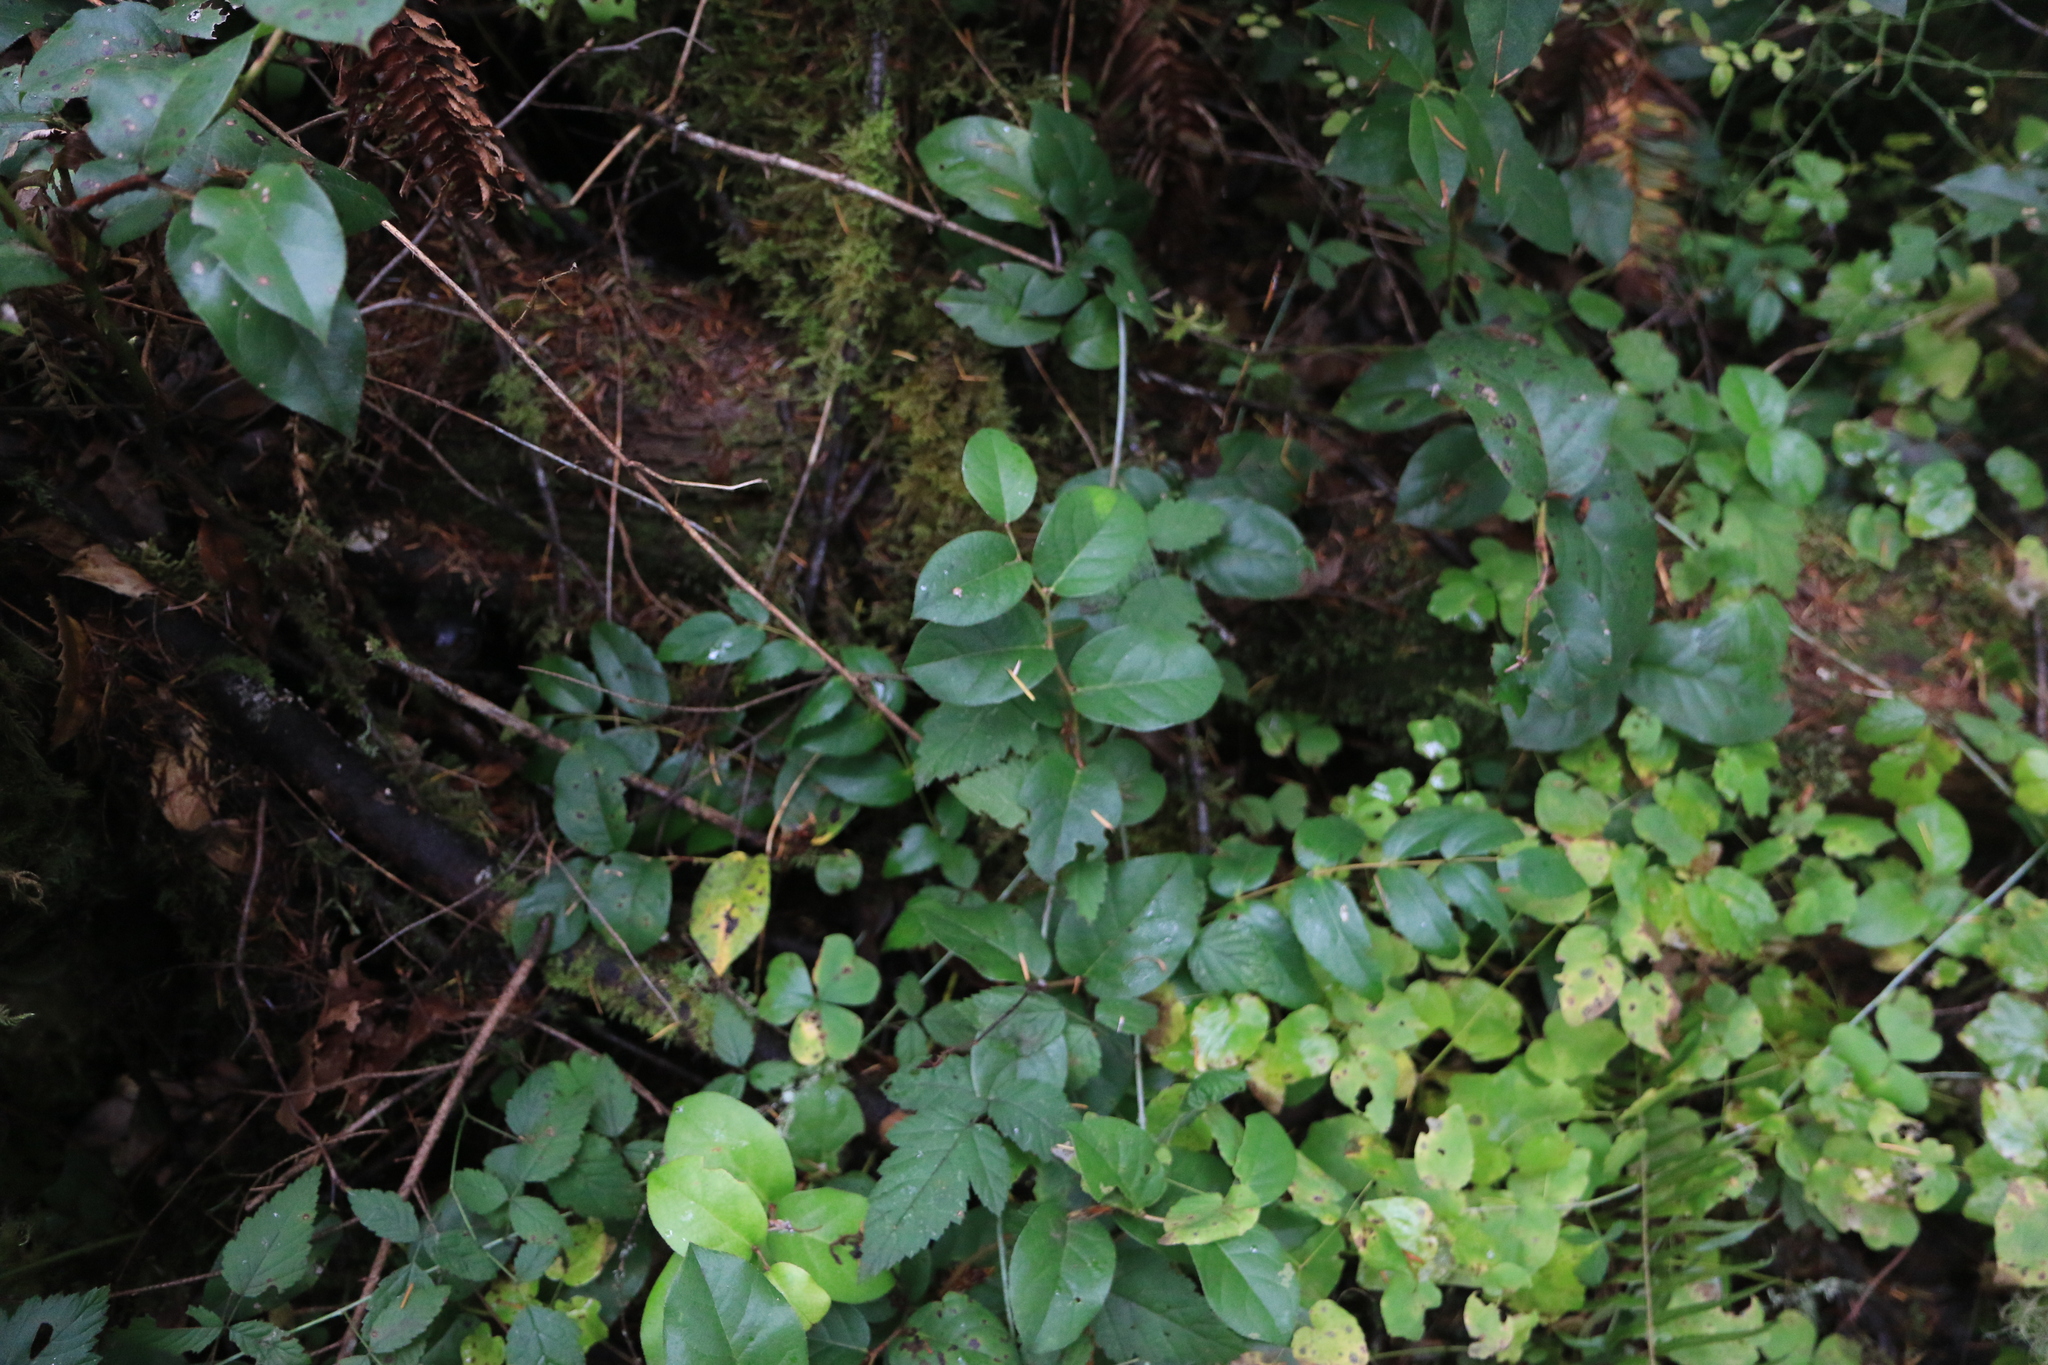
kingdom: Plantae
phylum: Tracheophyta
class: Magnoliopsida
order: Ericales
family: Ericaceae
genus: Gaultheria
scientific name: Gaultheria shallon
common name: Shallon
